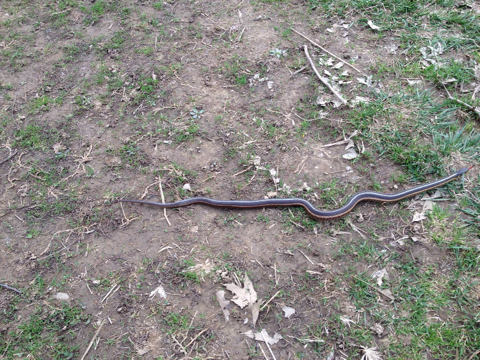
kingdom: Animalia
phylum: Chordata
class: Squamata
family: Colubridae
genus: Thamnophis
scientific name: Thamnophis sirtalis
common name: Common garter snake
